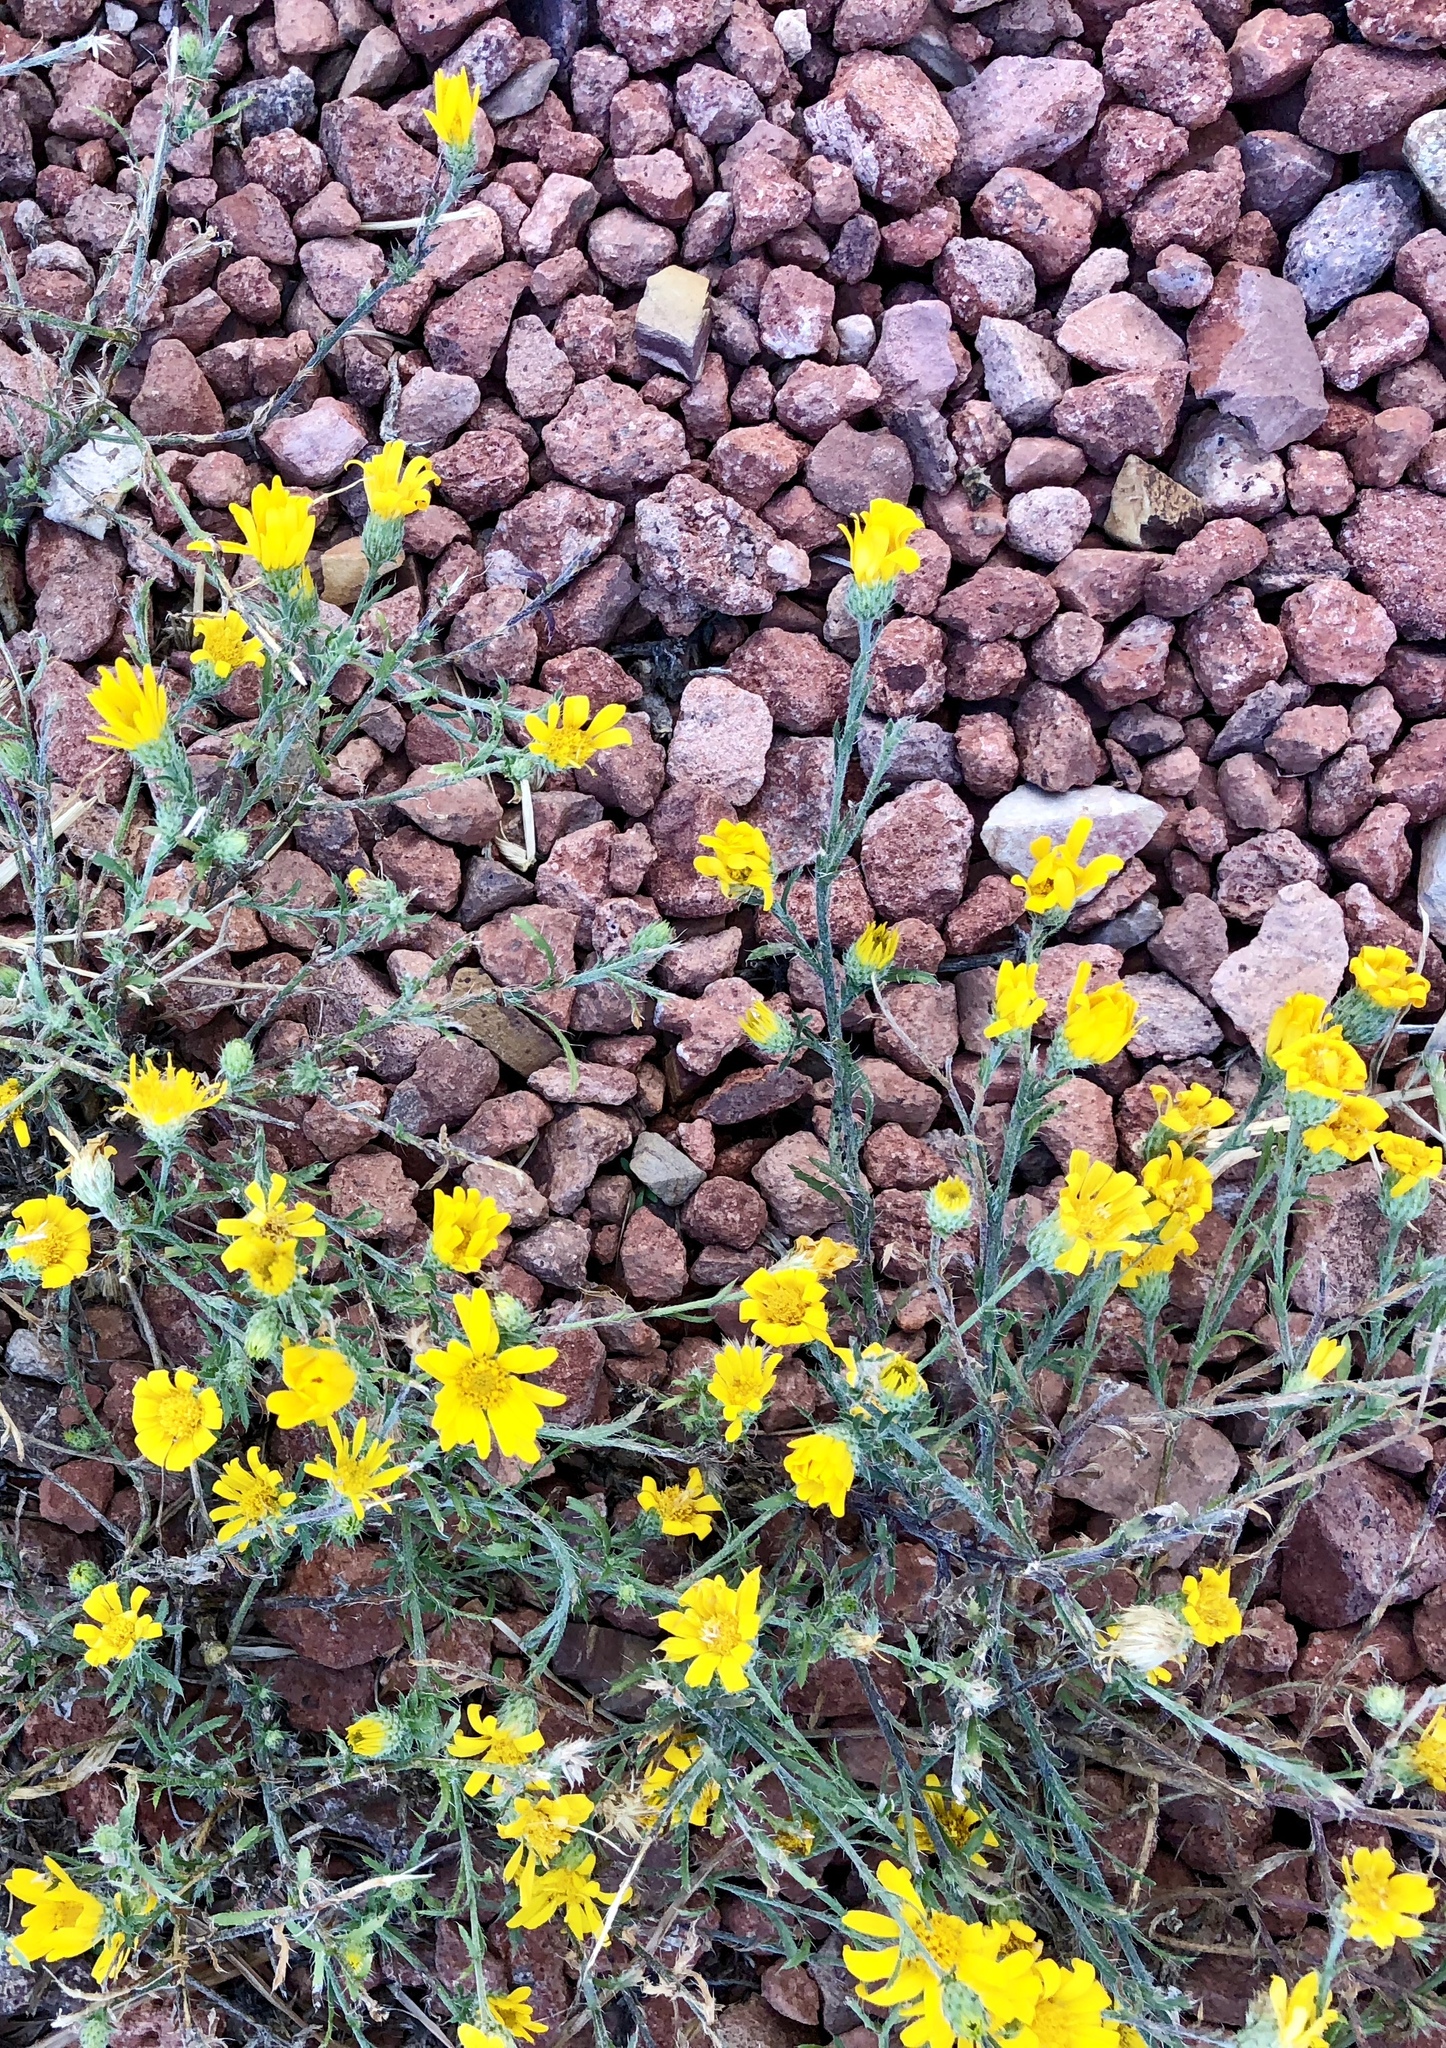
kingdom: Plantae
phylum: Tracheophyta
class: Magnoliopsida
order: Asterales
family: Asteraceae
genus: Xanthisma
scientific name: Xanthisma gracile
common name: Slender goldenweed
